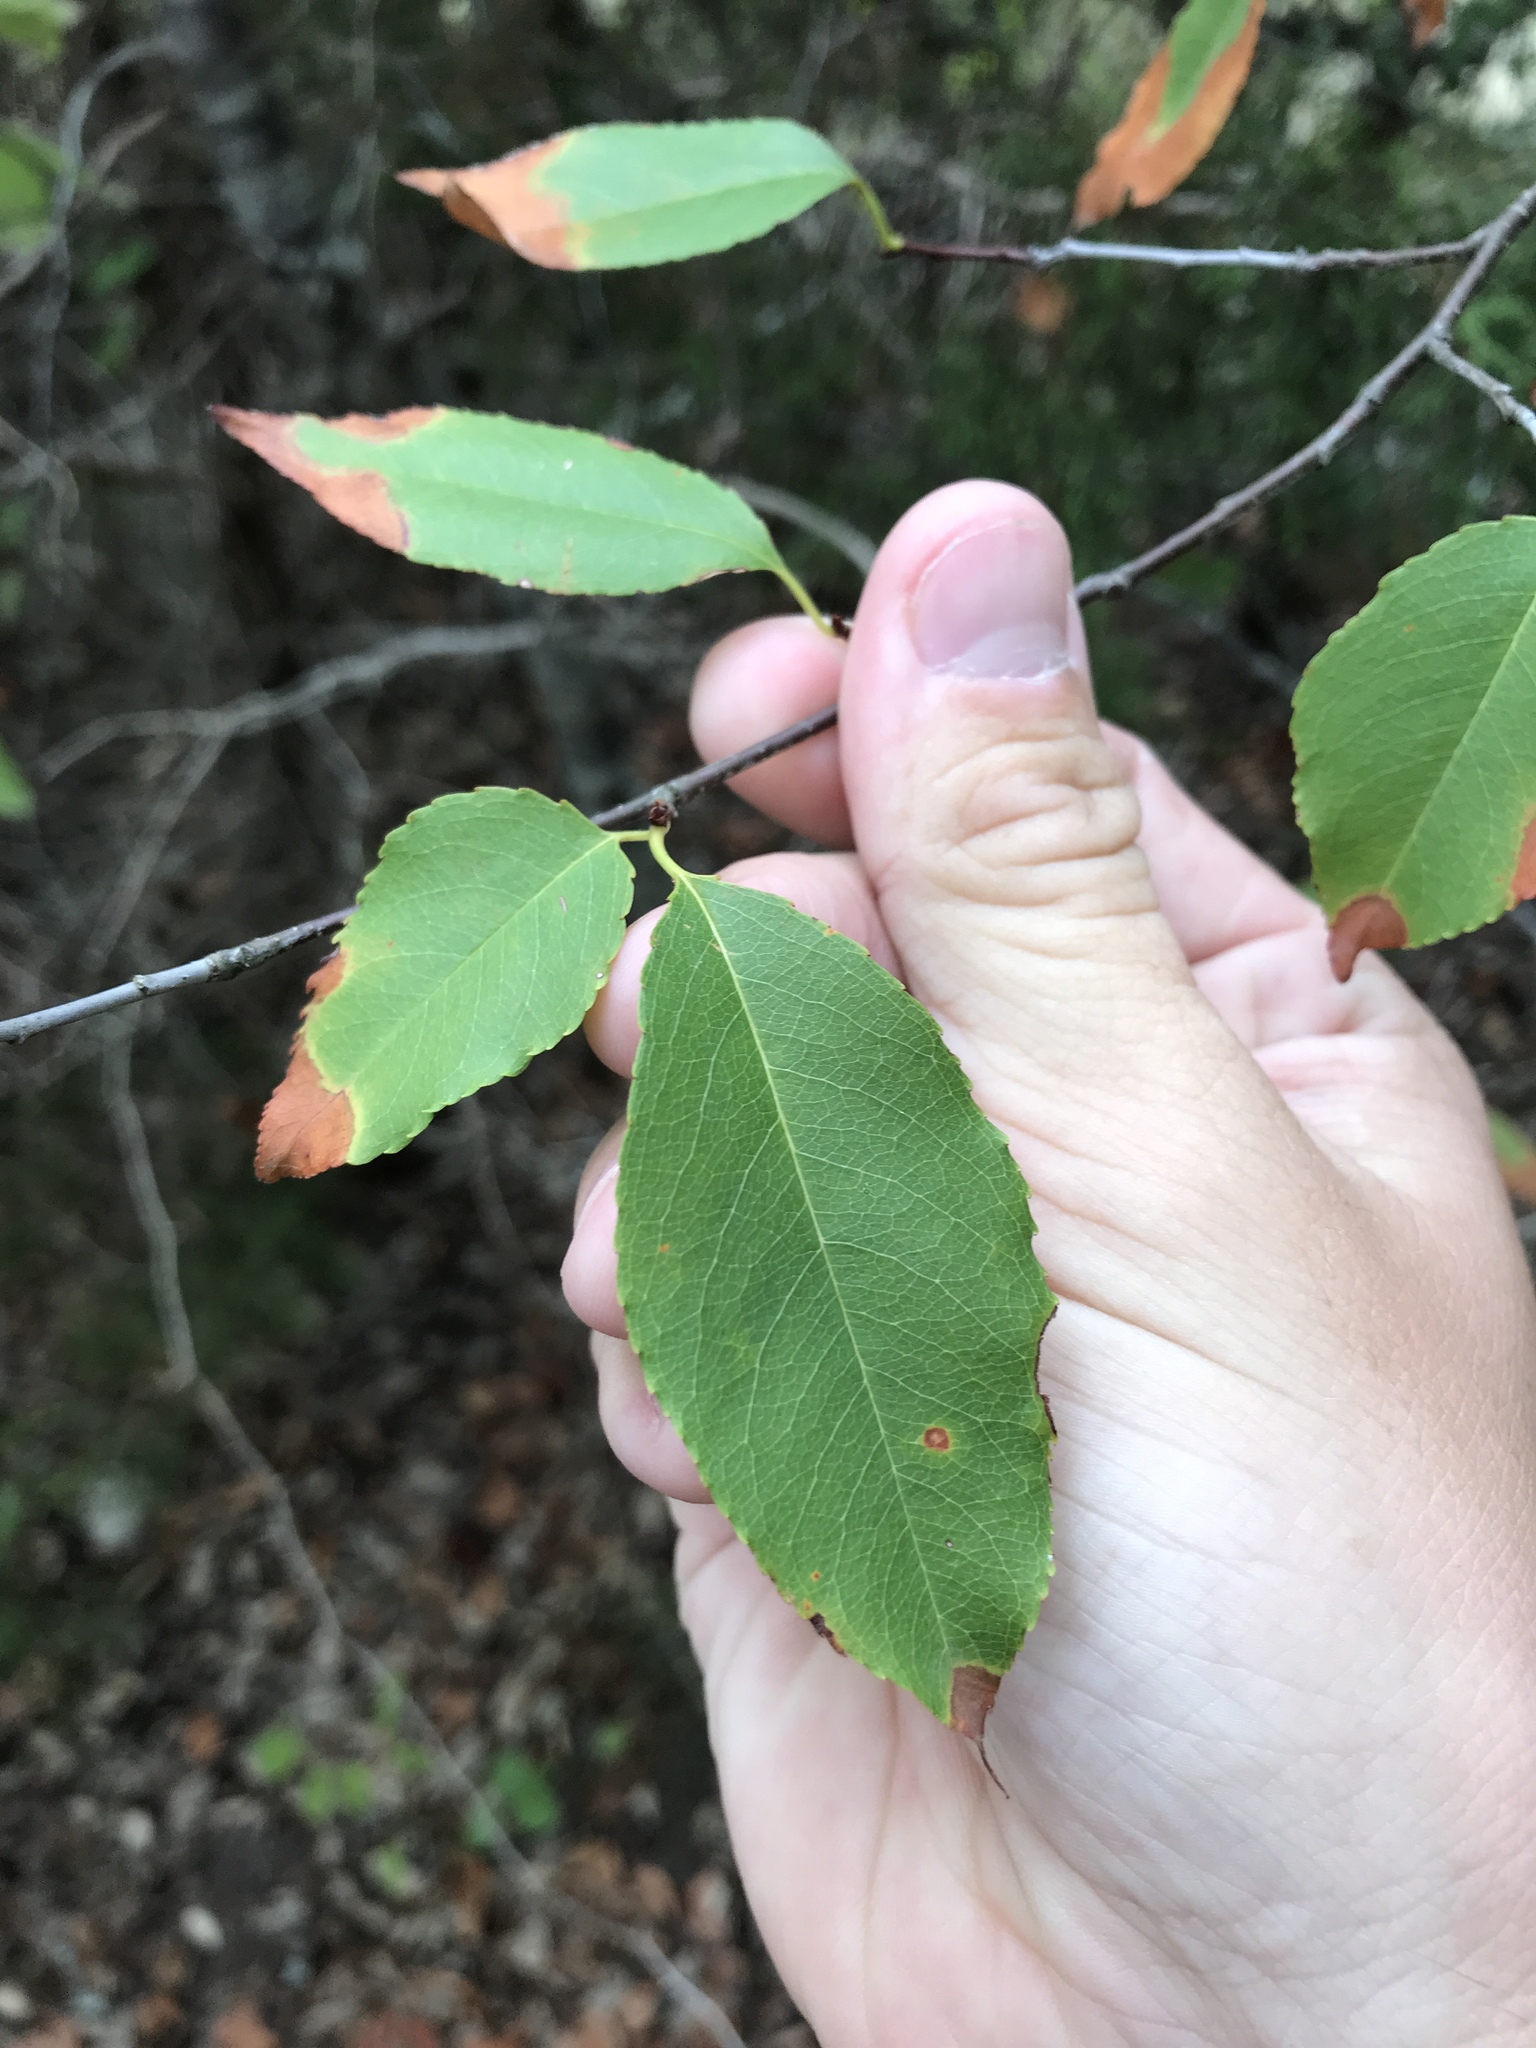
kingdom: Plantae
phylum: Tracheophyta
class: Magnoliopsida
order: Rosales
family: Rosaceae
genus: Prunus
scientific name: Prunus serotina
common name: Black cherry
